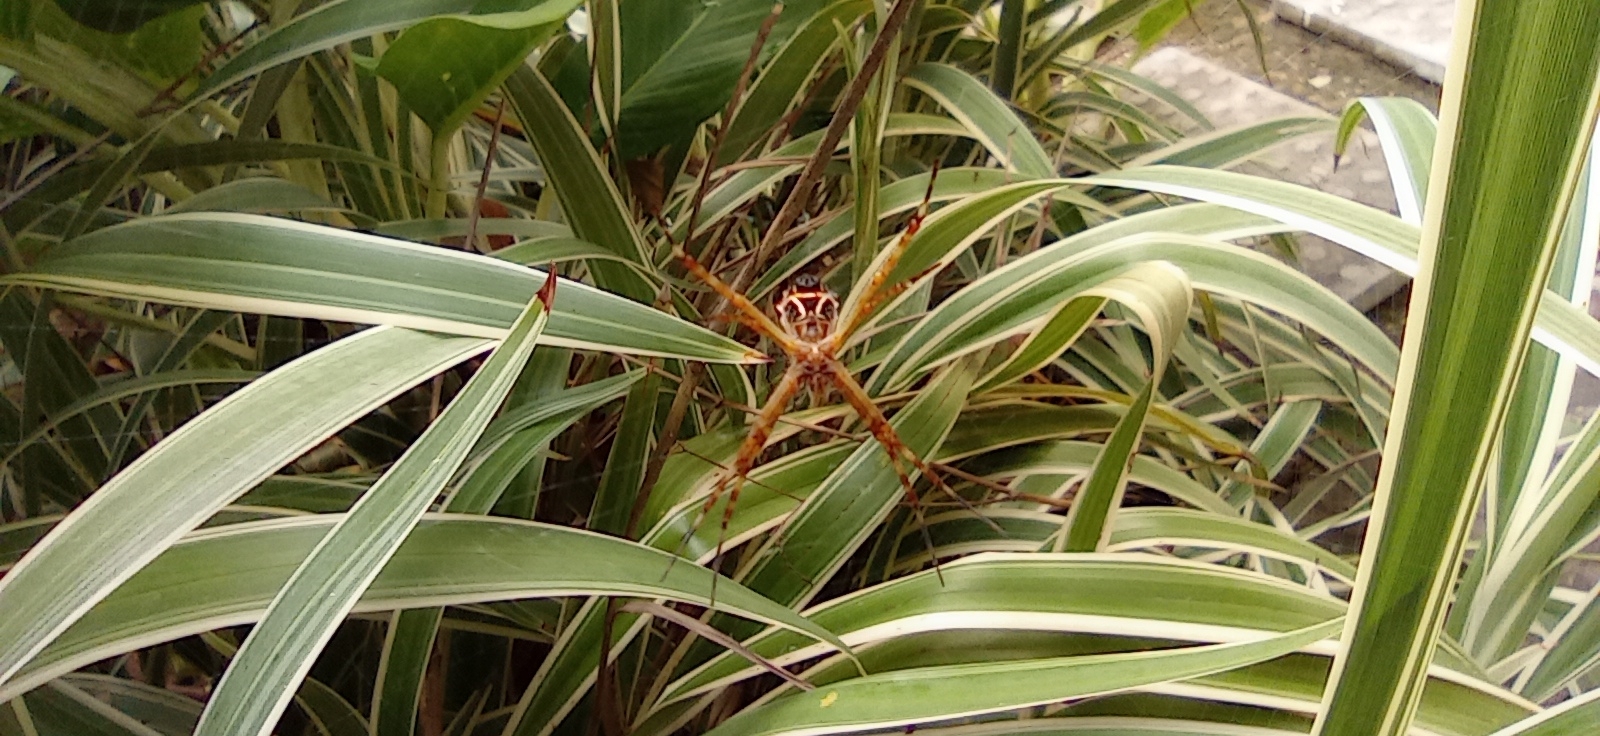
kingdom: Animalia
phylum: Arthropoda
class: Arachnida
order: Araneae
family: Araneidae
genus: Argiope
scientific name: Argiope argentata
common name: Orb weavers
